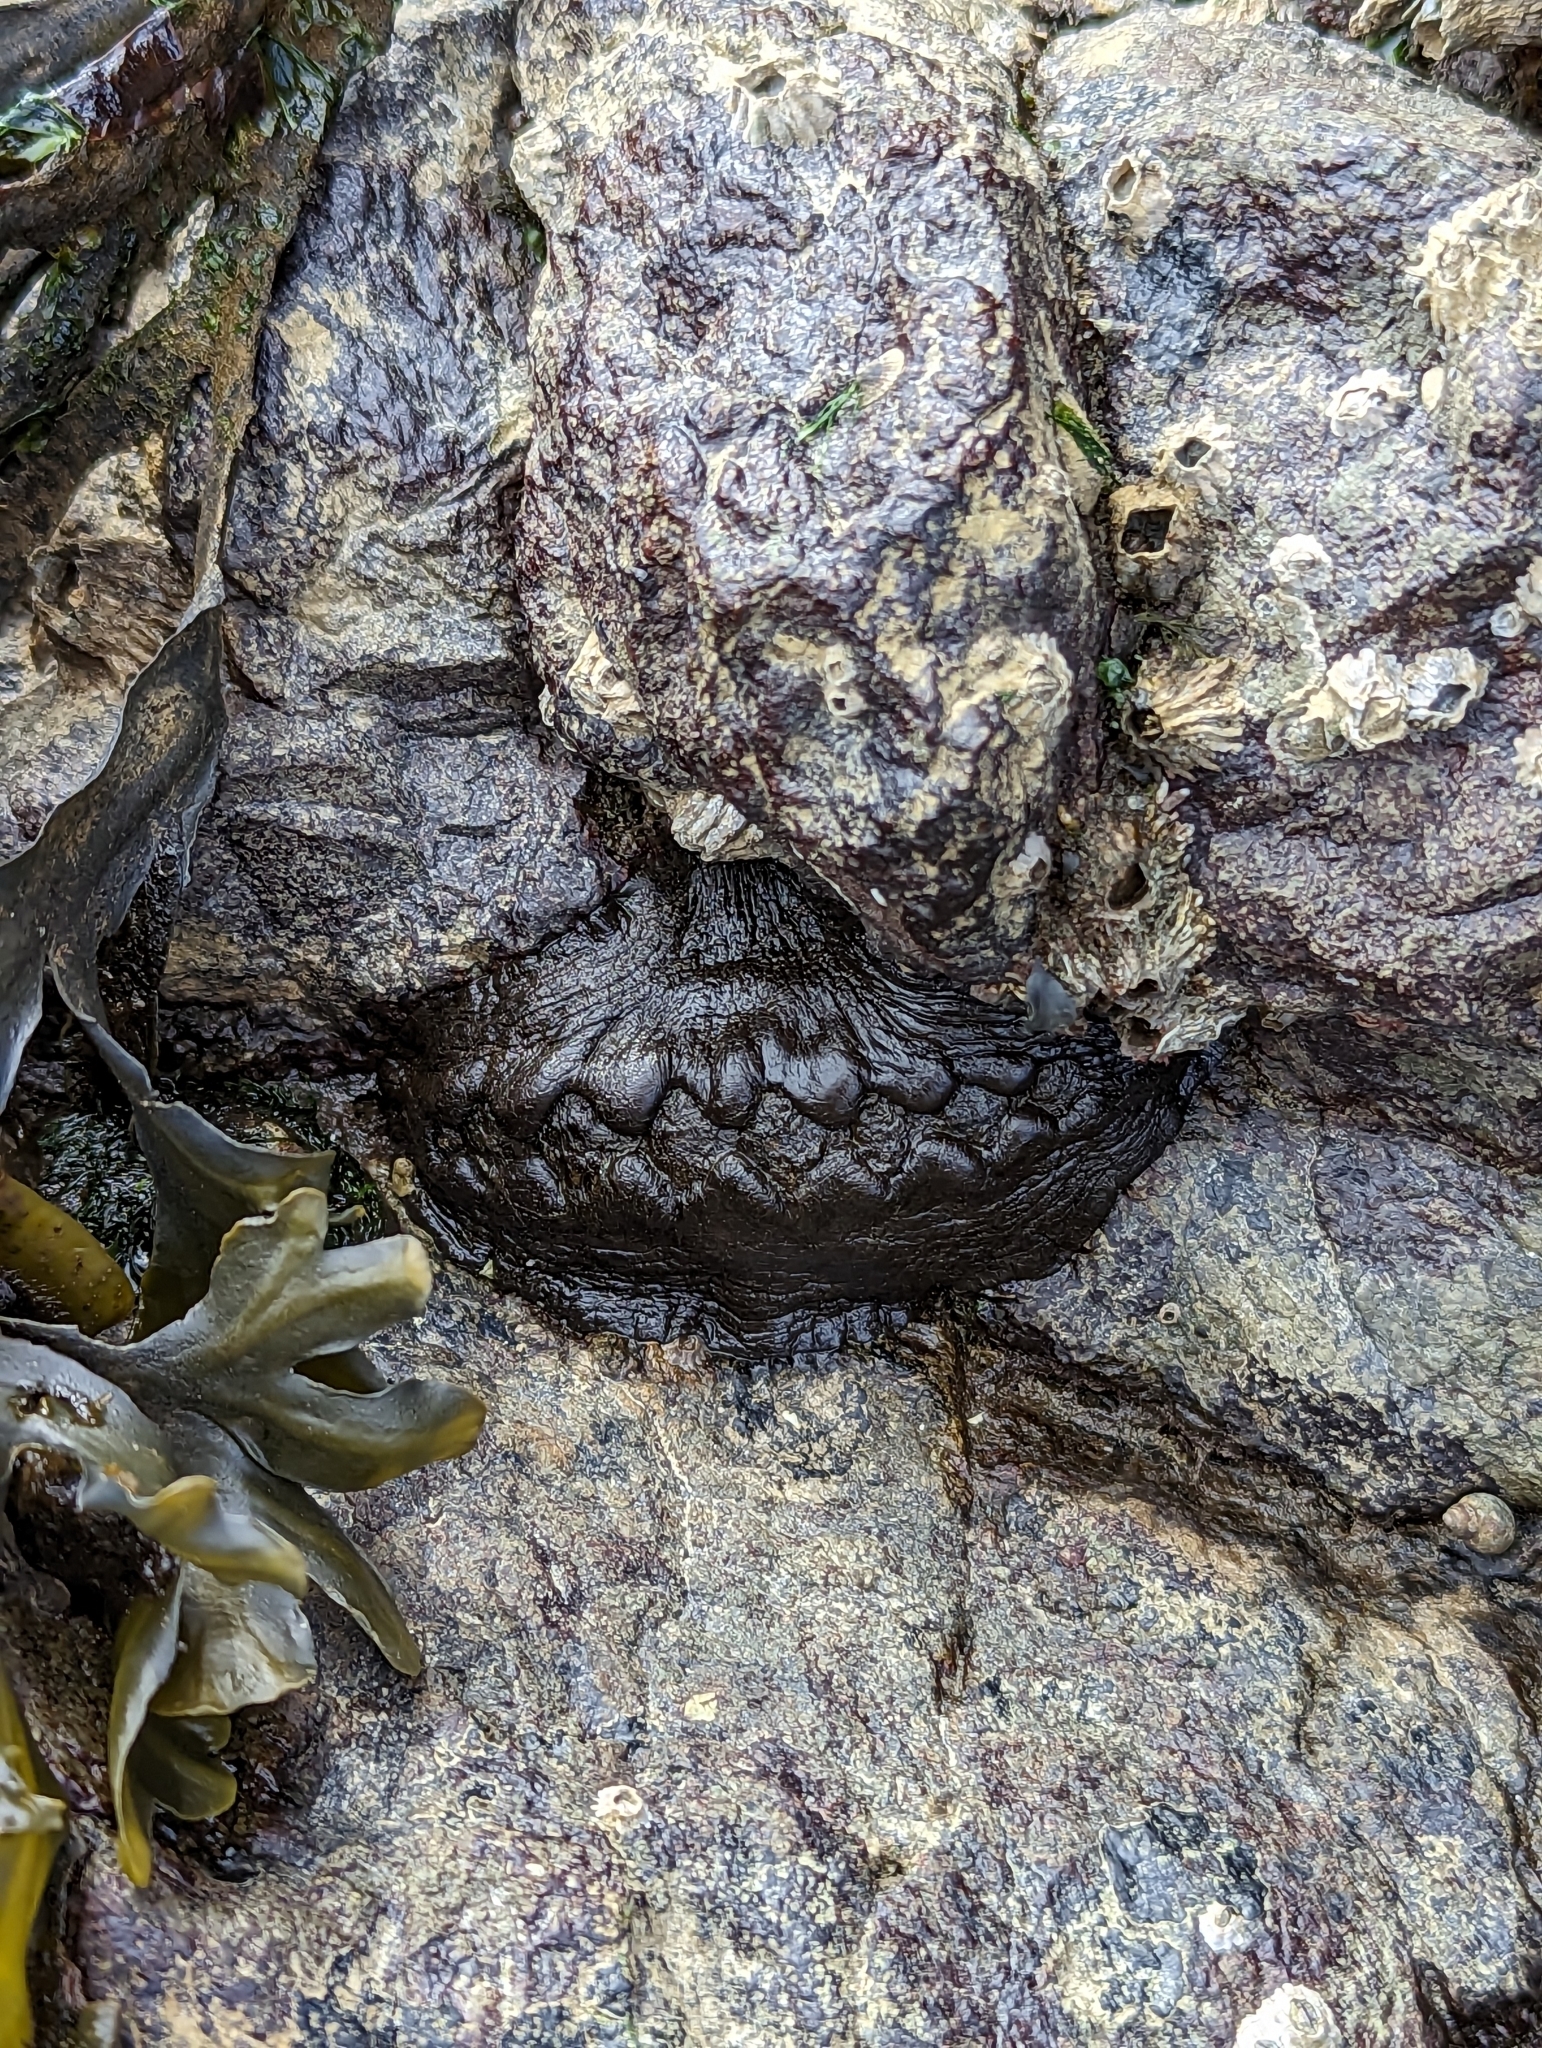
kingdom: Animalia
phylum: Mollusca
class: Polyplacophora
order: Chitonida
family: Mopaliidae
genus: Katharina
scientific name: Katharina tunicata
